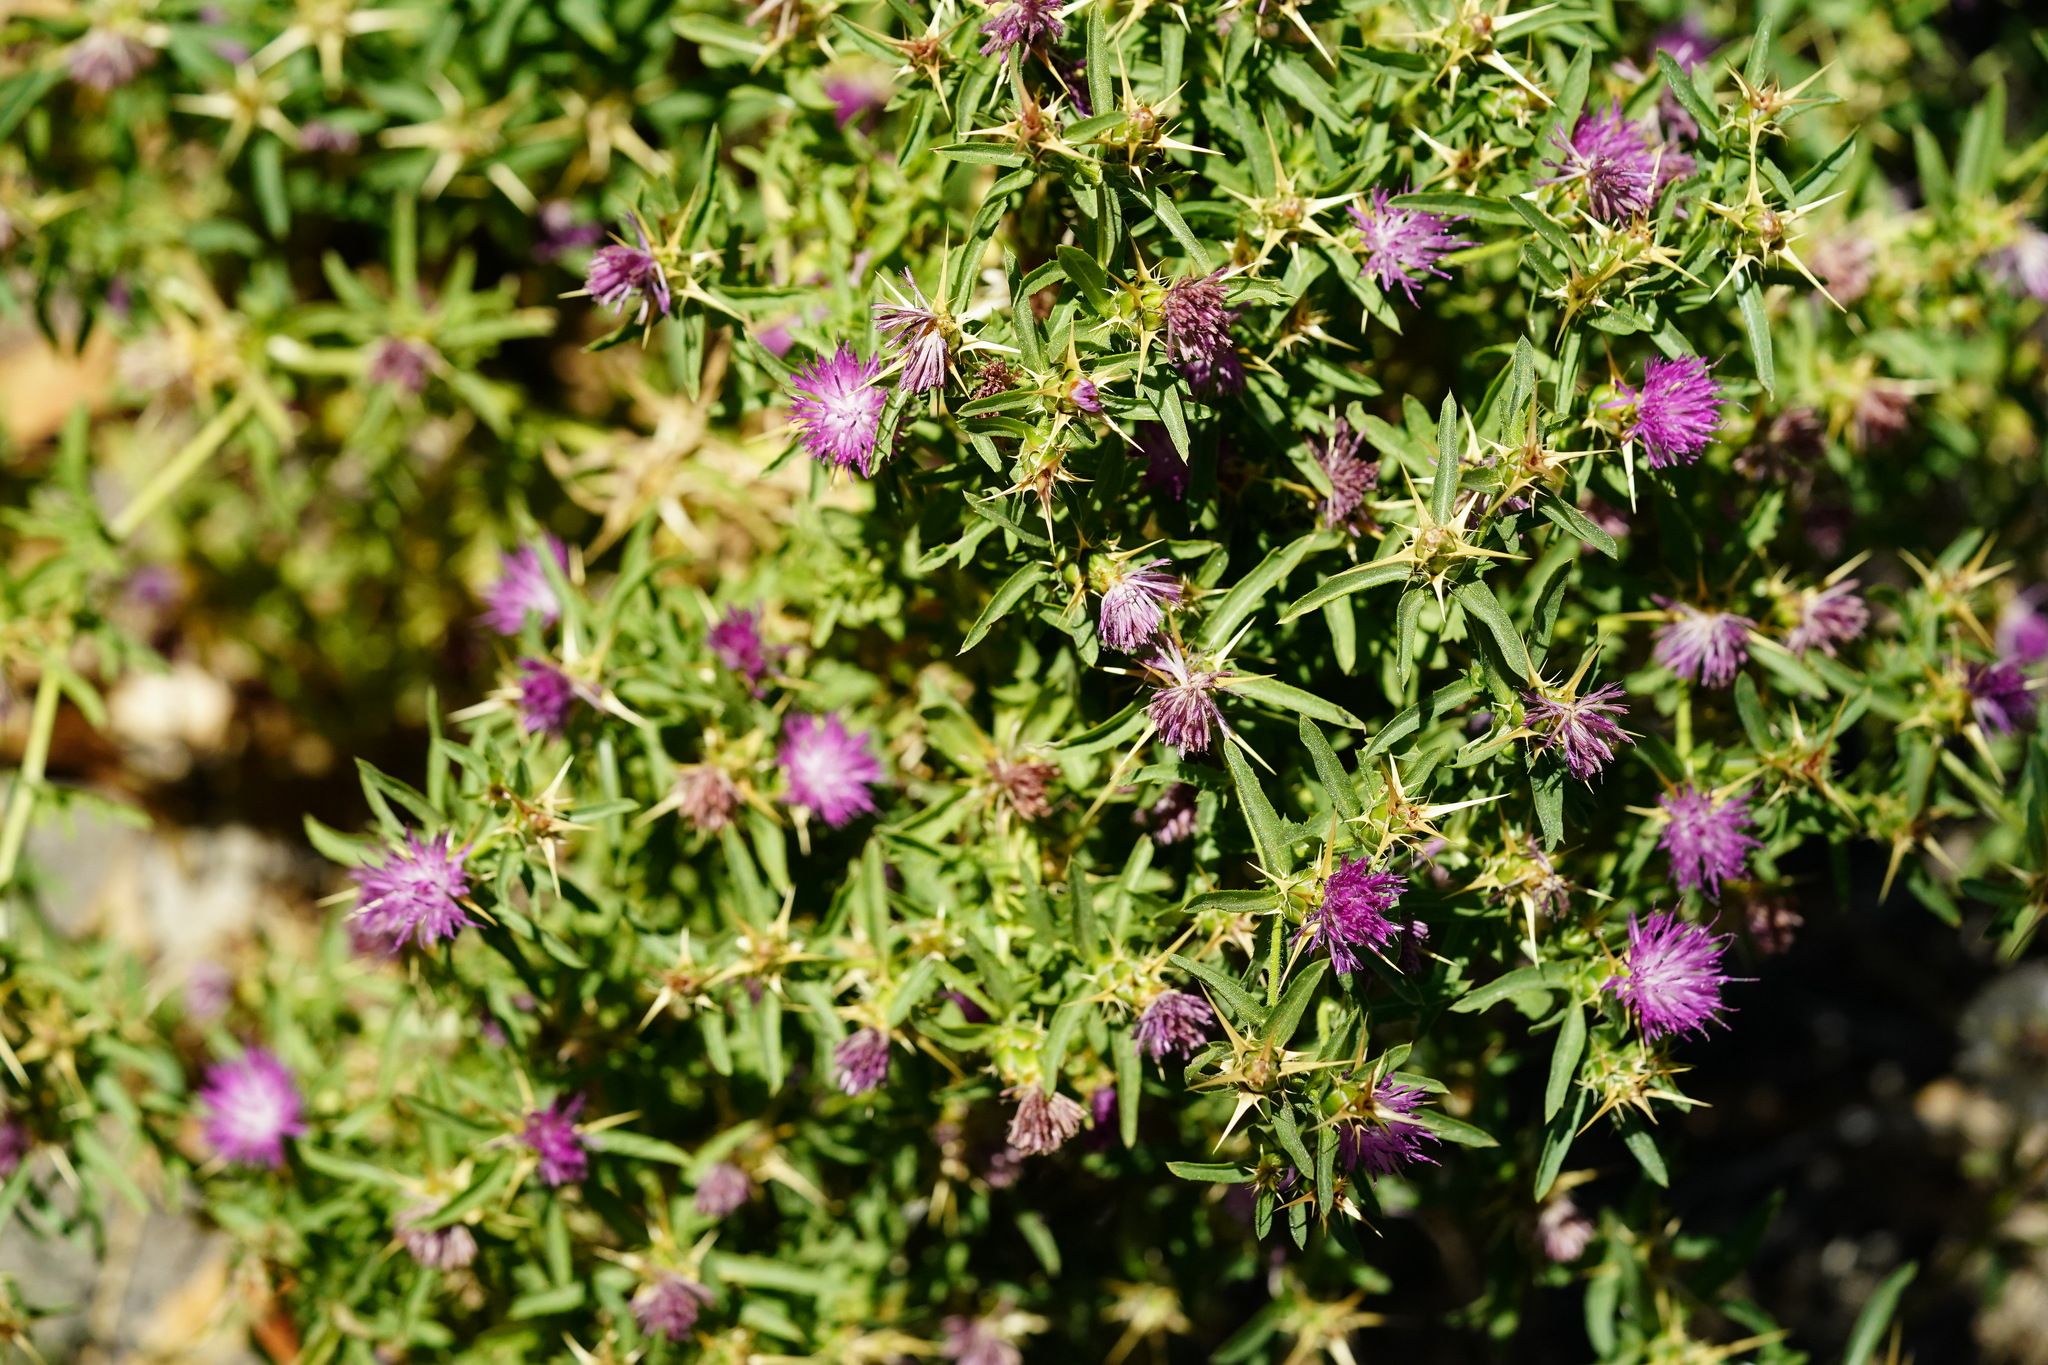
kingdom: Plantae
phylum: Tracheophyta
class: Magnoliopsida
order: Asterales
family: Asteraceae
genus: Centaurea
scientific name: Centaurea calcitrapa
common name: Red star-thistle
